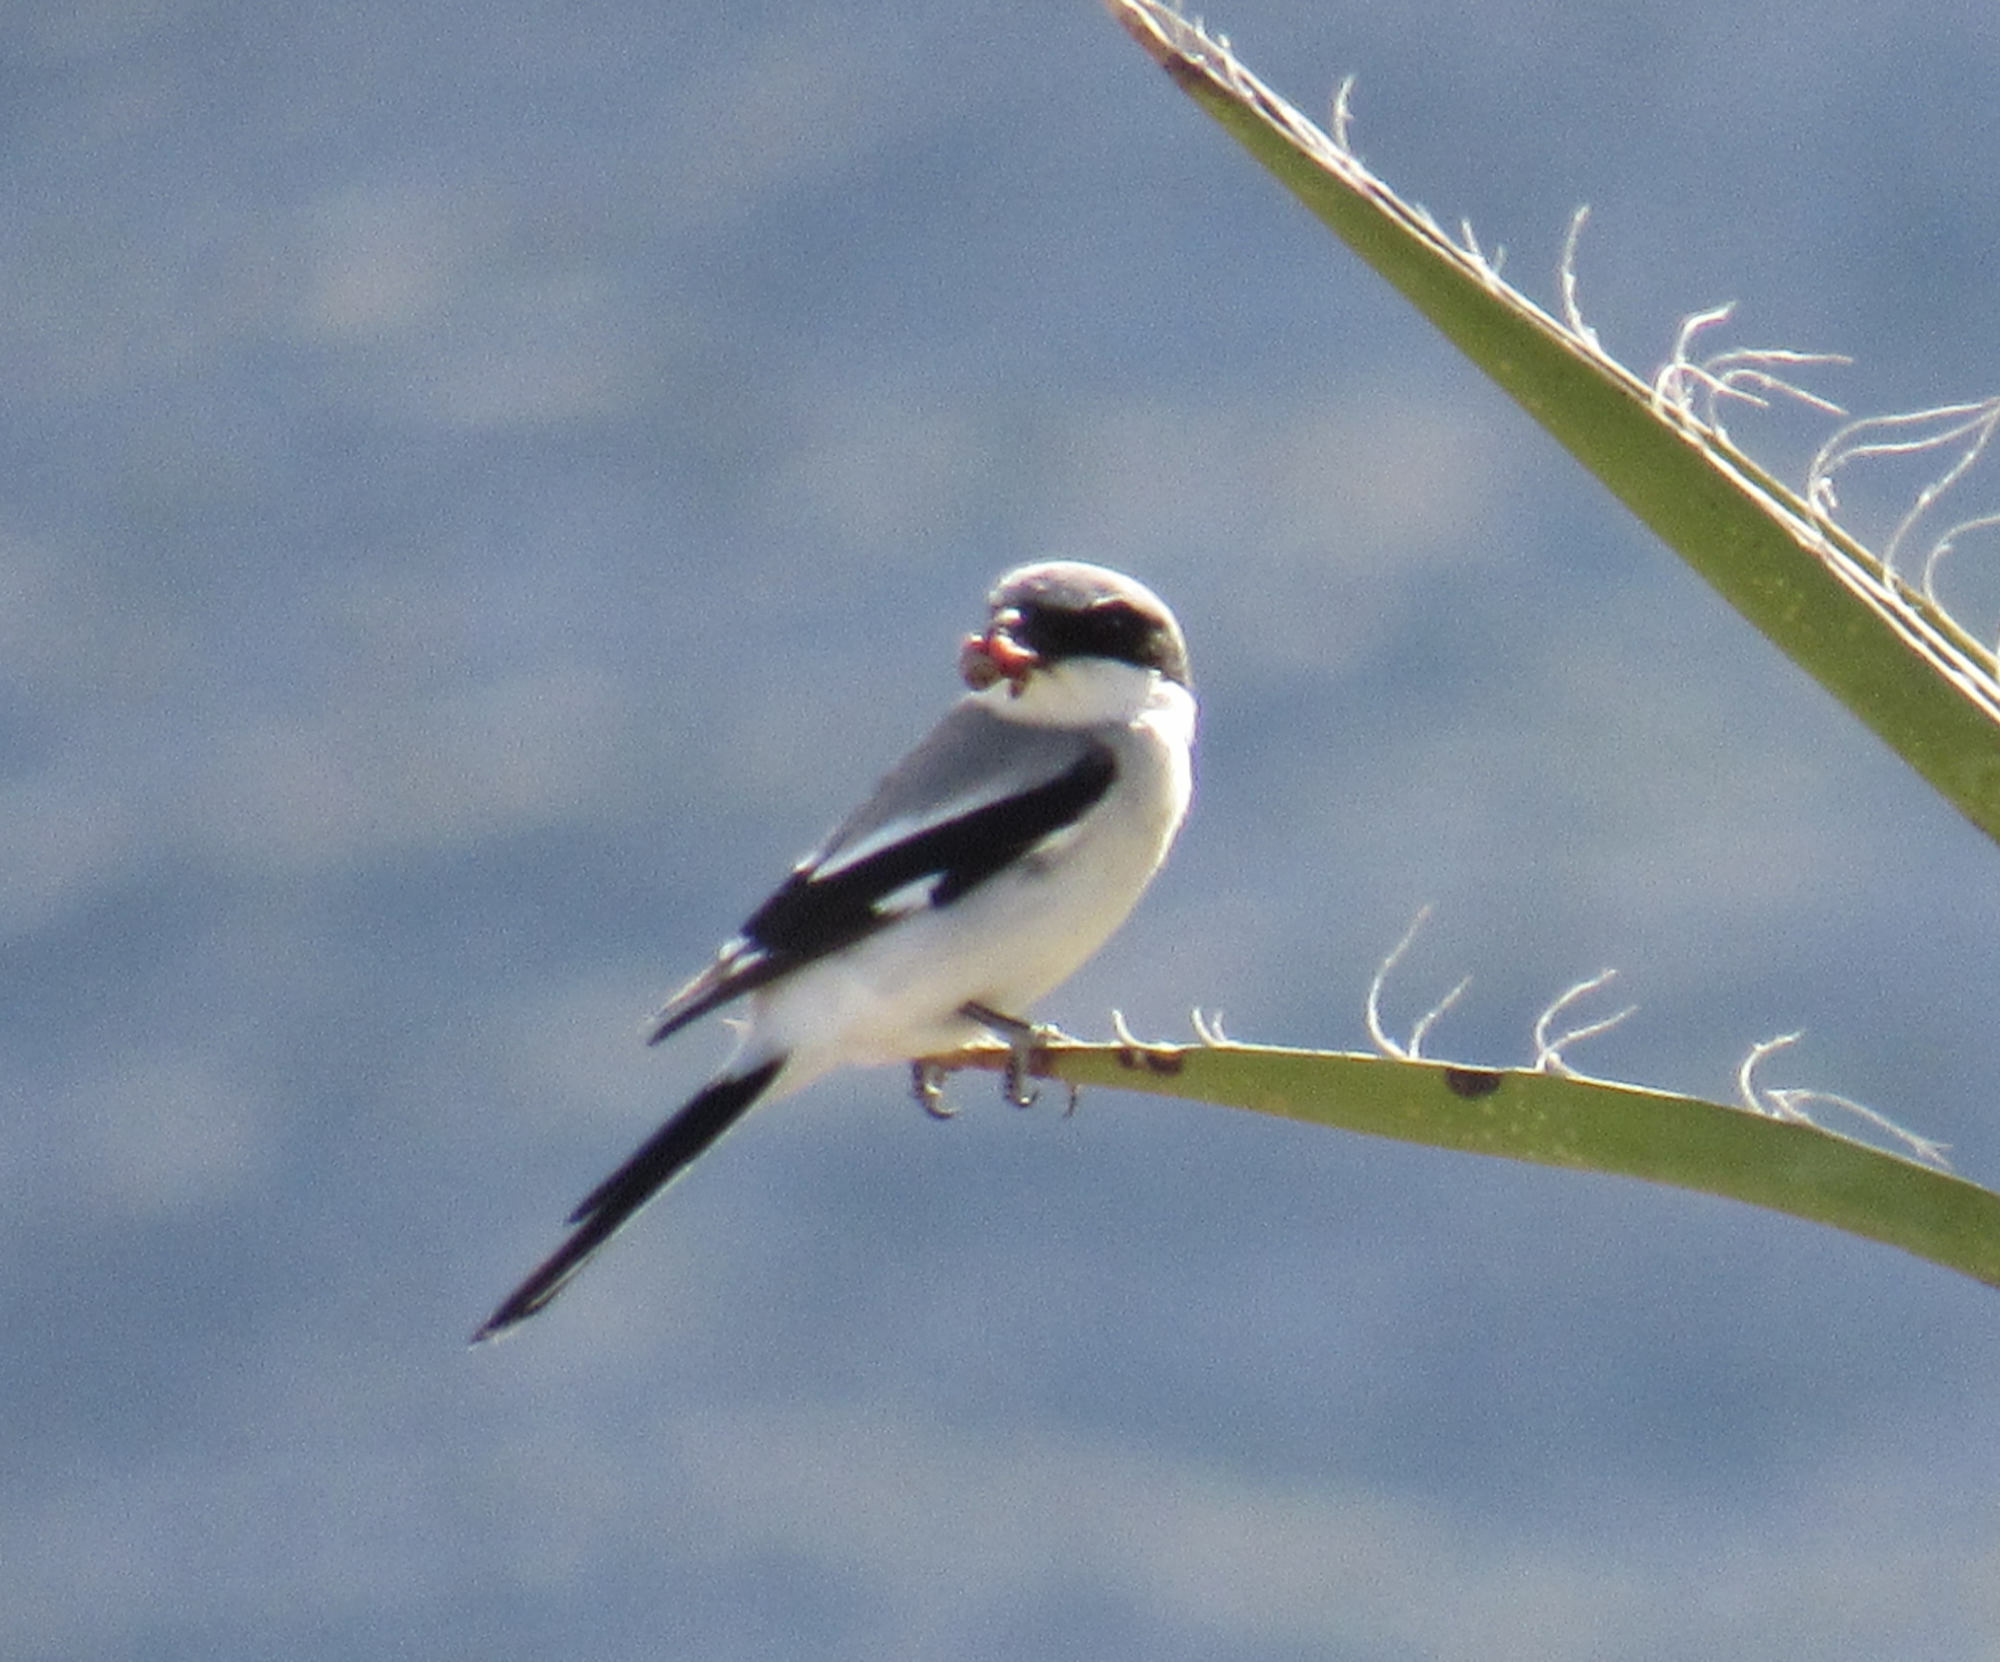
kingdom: Animalia
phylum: Chordata
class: Aves
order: Passeriformes
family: Laniidae
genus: Lanius
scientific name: Lanius ludovicianus
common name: Loggerhead shrike
